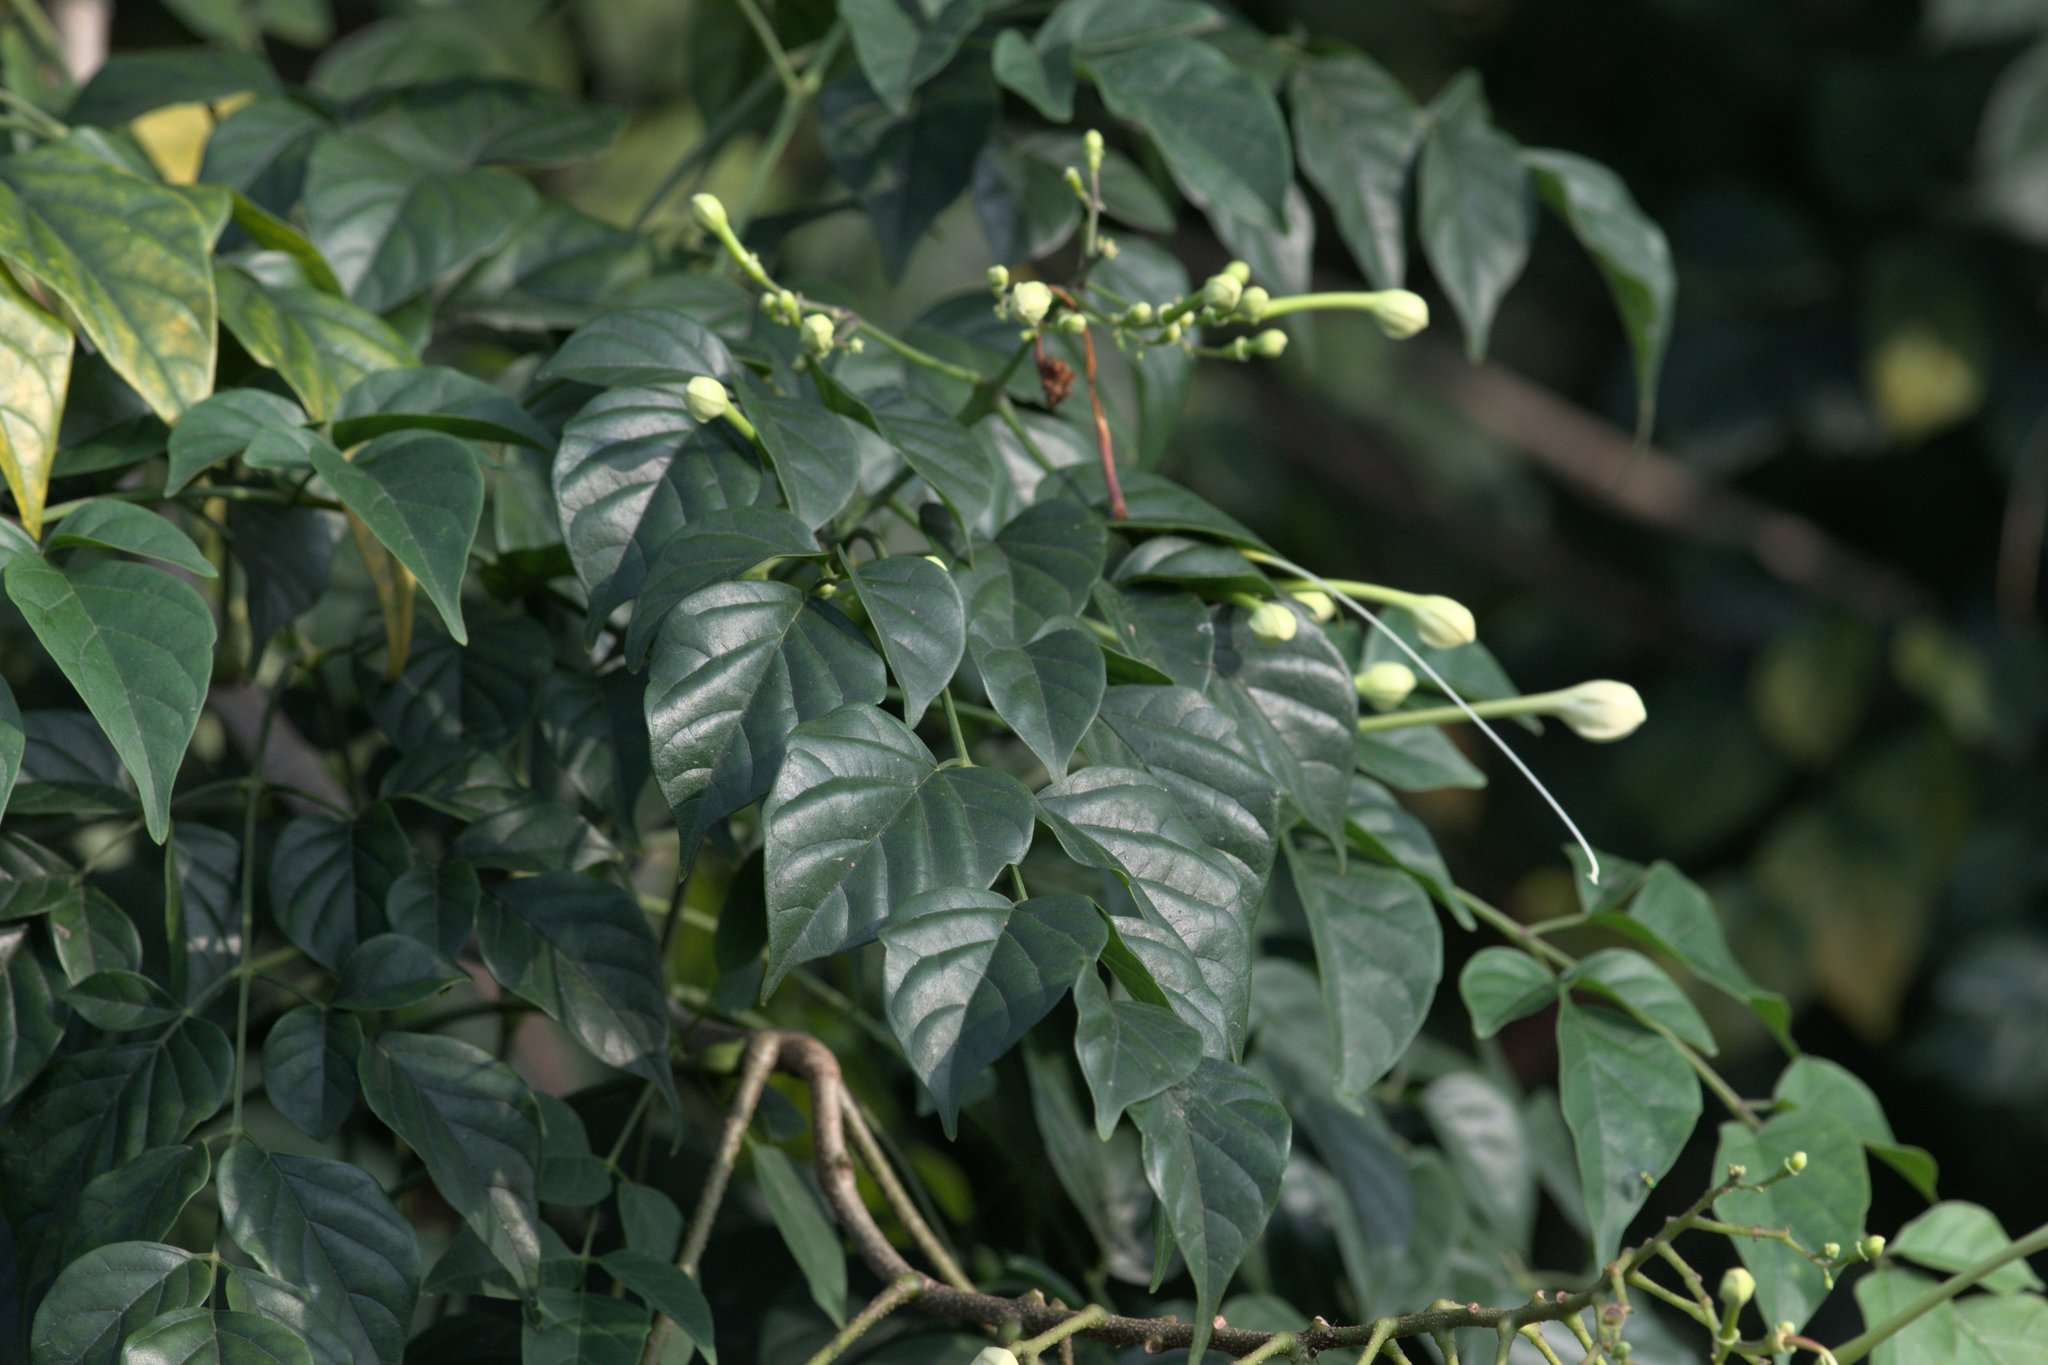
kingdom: Plantae
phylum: Tracheophyta
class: Magnoliopsida
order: Lamiales
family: Bignoniaceae
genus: Millingtonia
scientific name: Millingtonia hortensis
